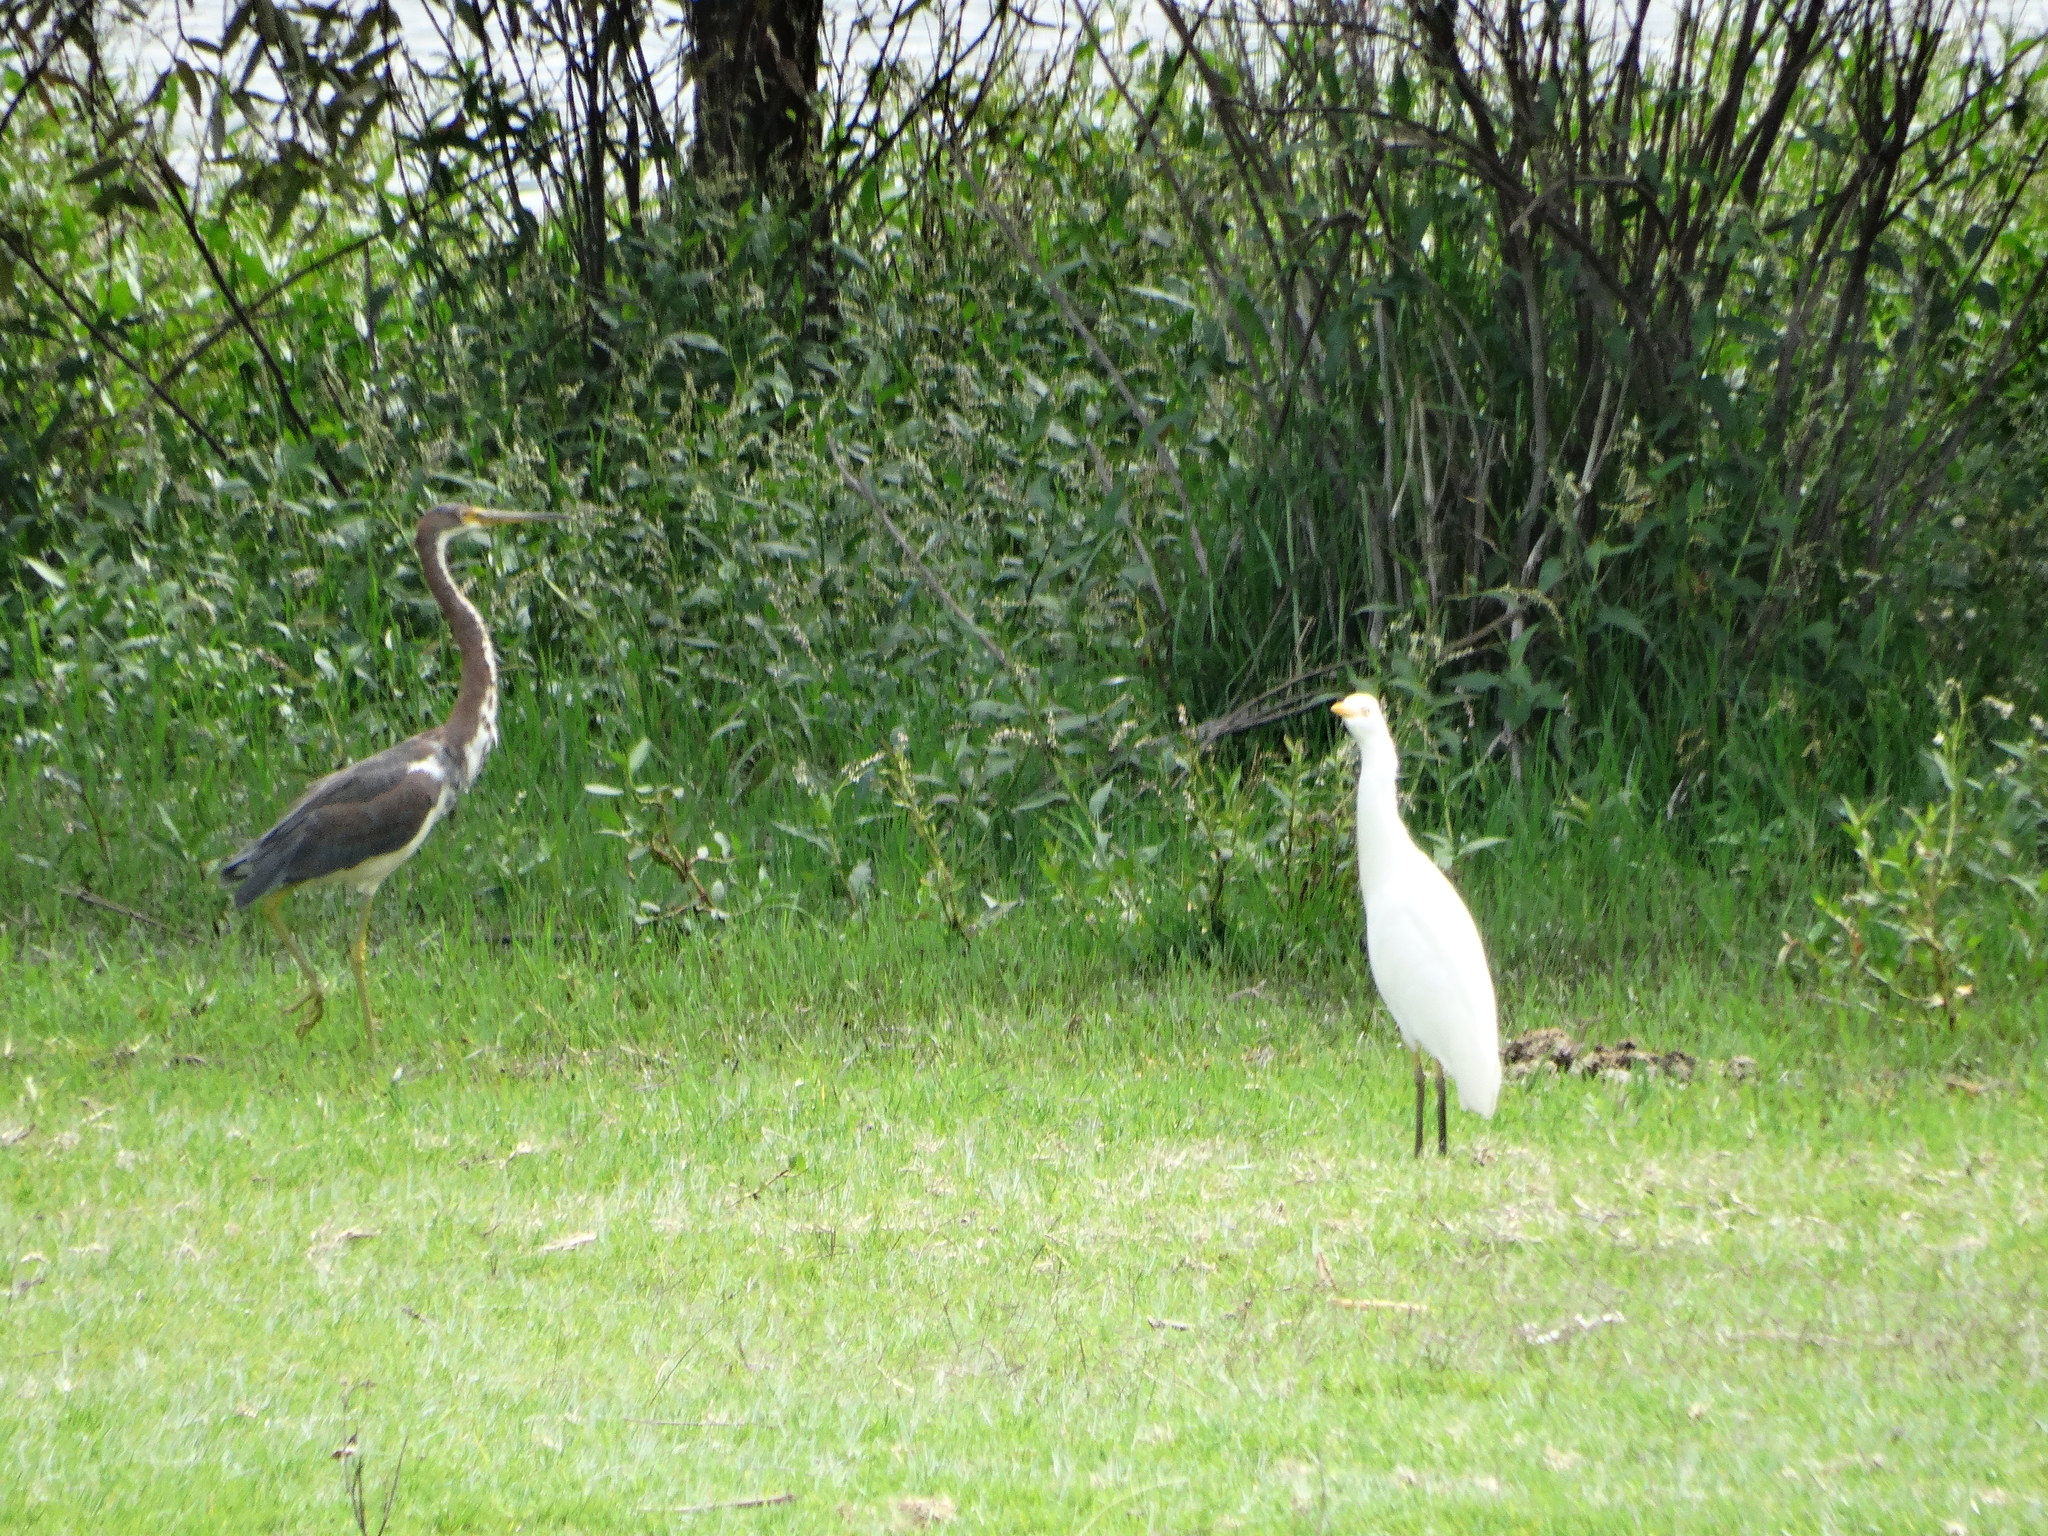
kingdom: Animalia
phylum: Chordata
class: Aves
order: Pelecaniformes
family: Ardeidae
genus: Egretta
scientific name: Egretta tricolor
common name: Tricolored heron
